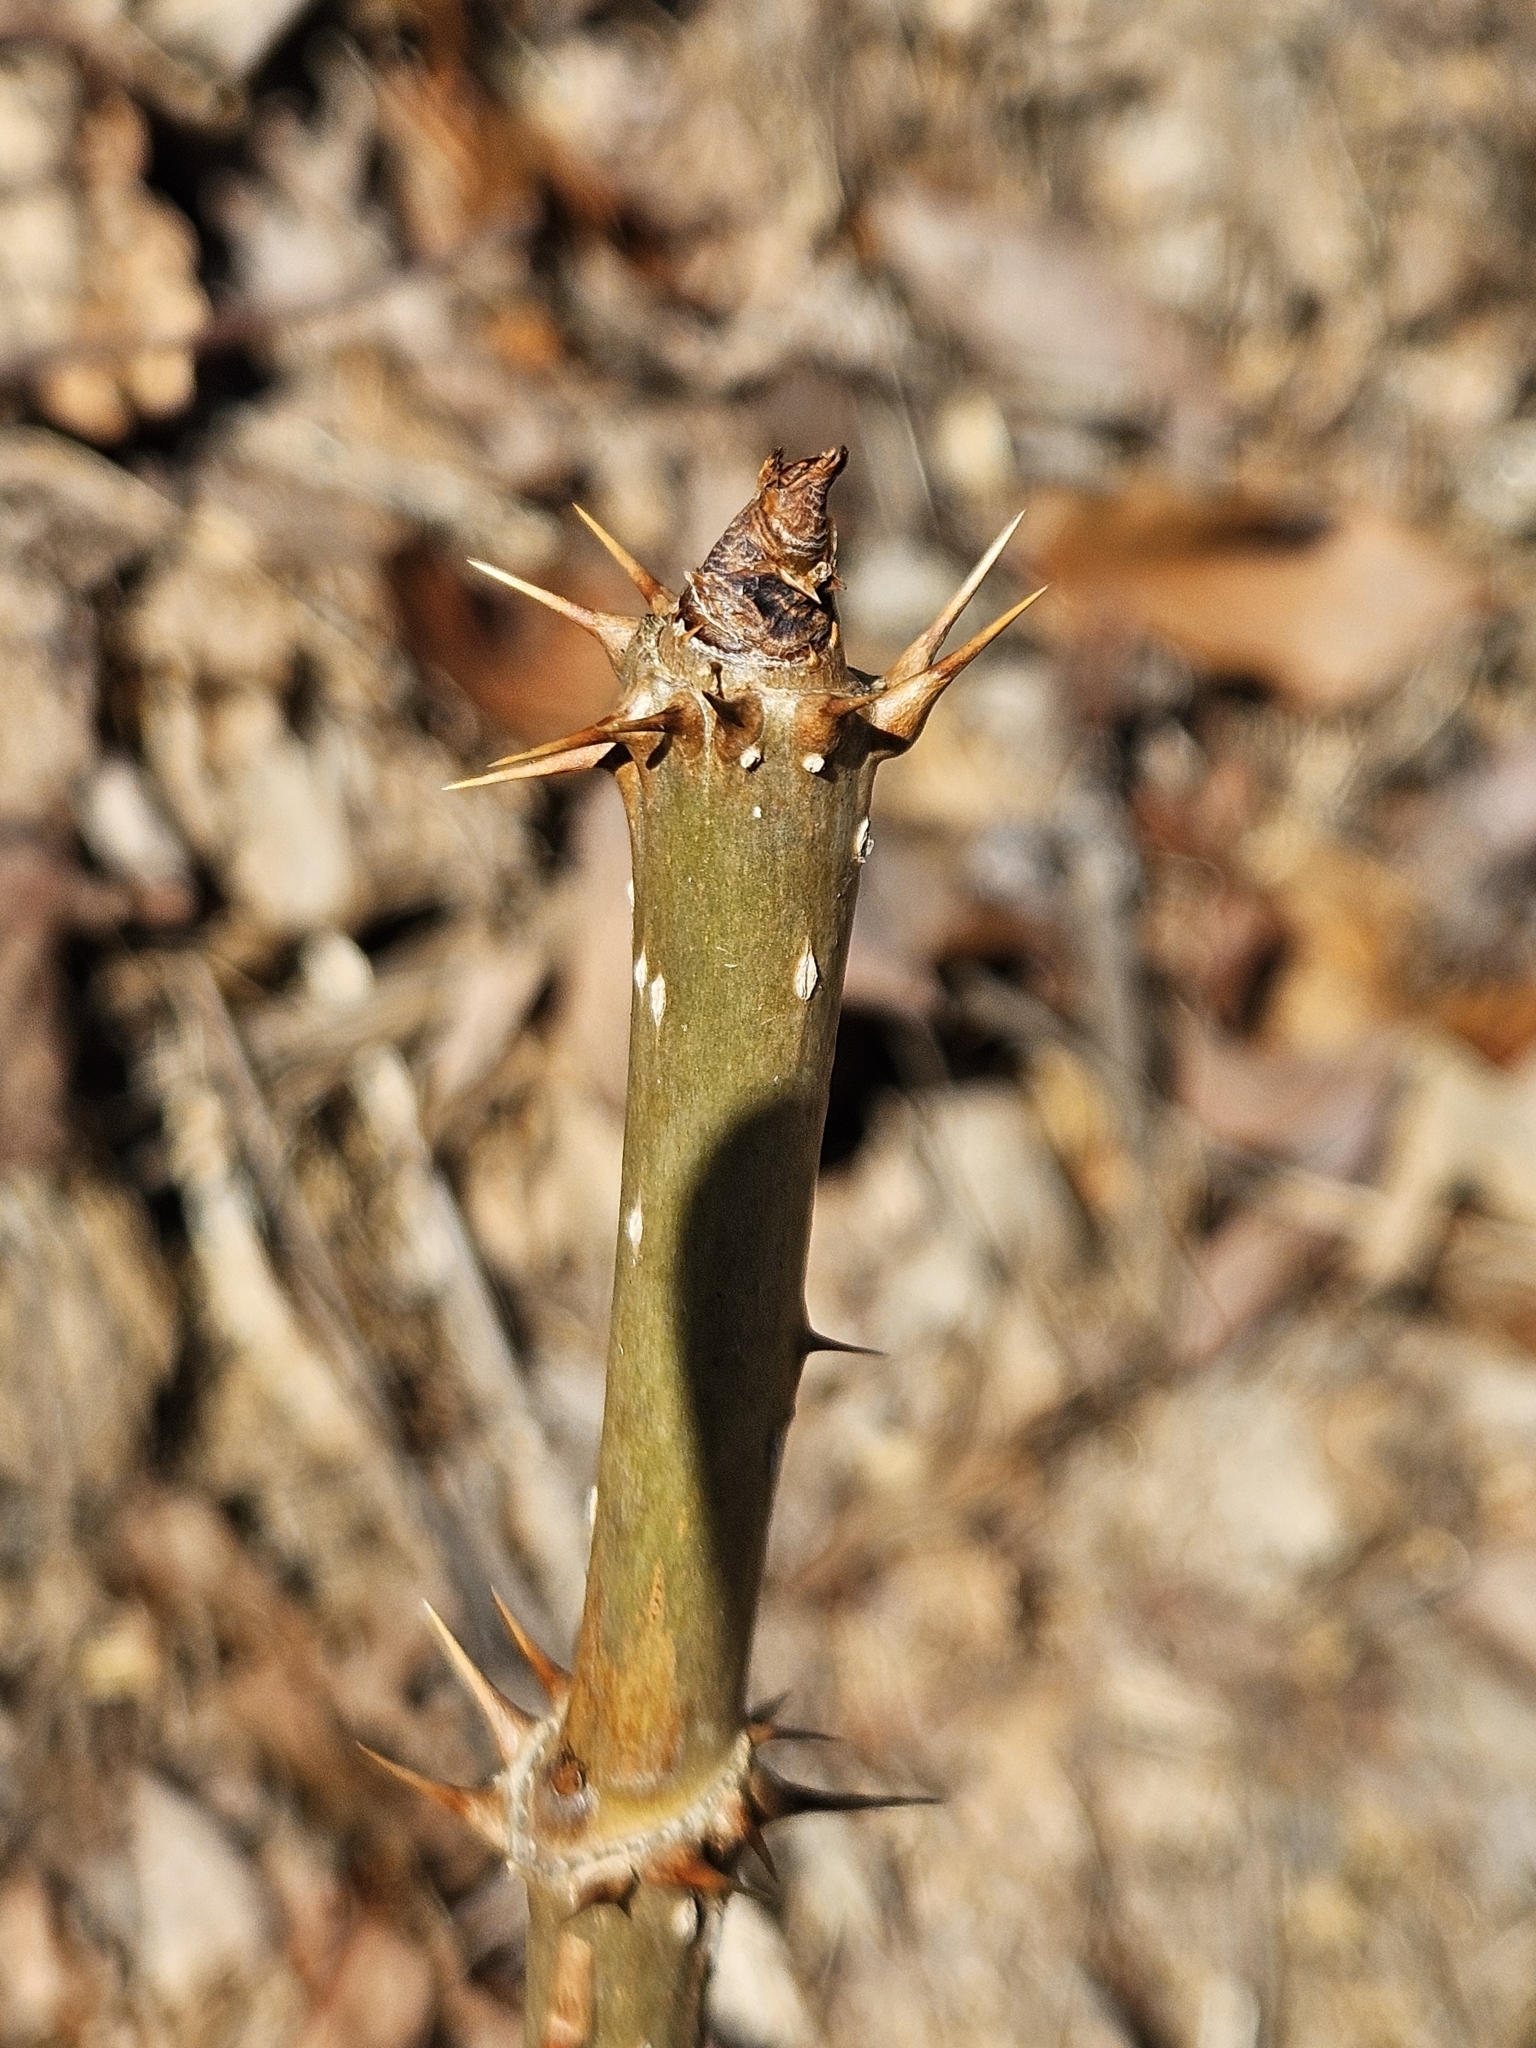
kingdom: Plantae
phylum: Tracheophyta
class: Magnoliopsida
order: Apiales
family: Araliaceae
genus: Aralia
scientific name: Aralia spinosa
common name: Hercules'-club
